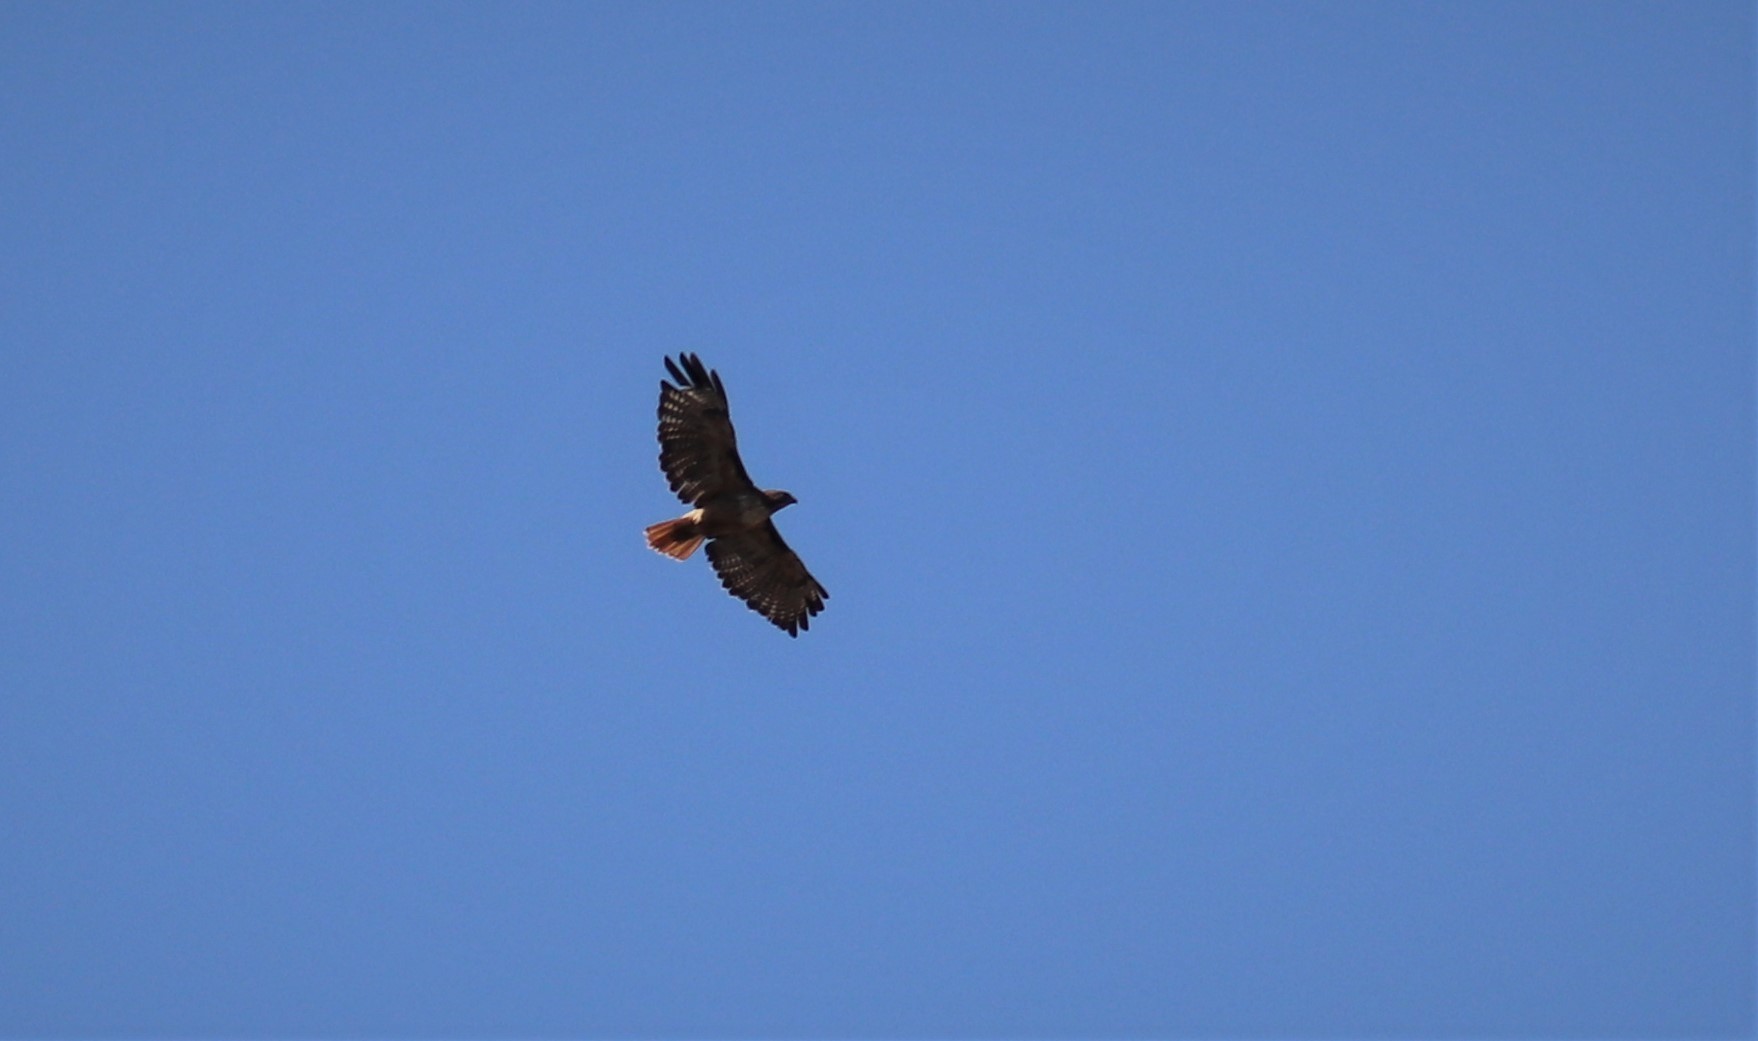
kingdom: Animalia
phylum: Chordata
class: Aves
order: Accipitriformes
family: Accipitridae
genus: Buteo
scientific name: Buteo jamaicensis
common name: Red-tailed hawk
